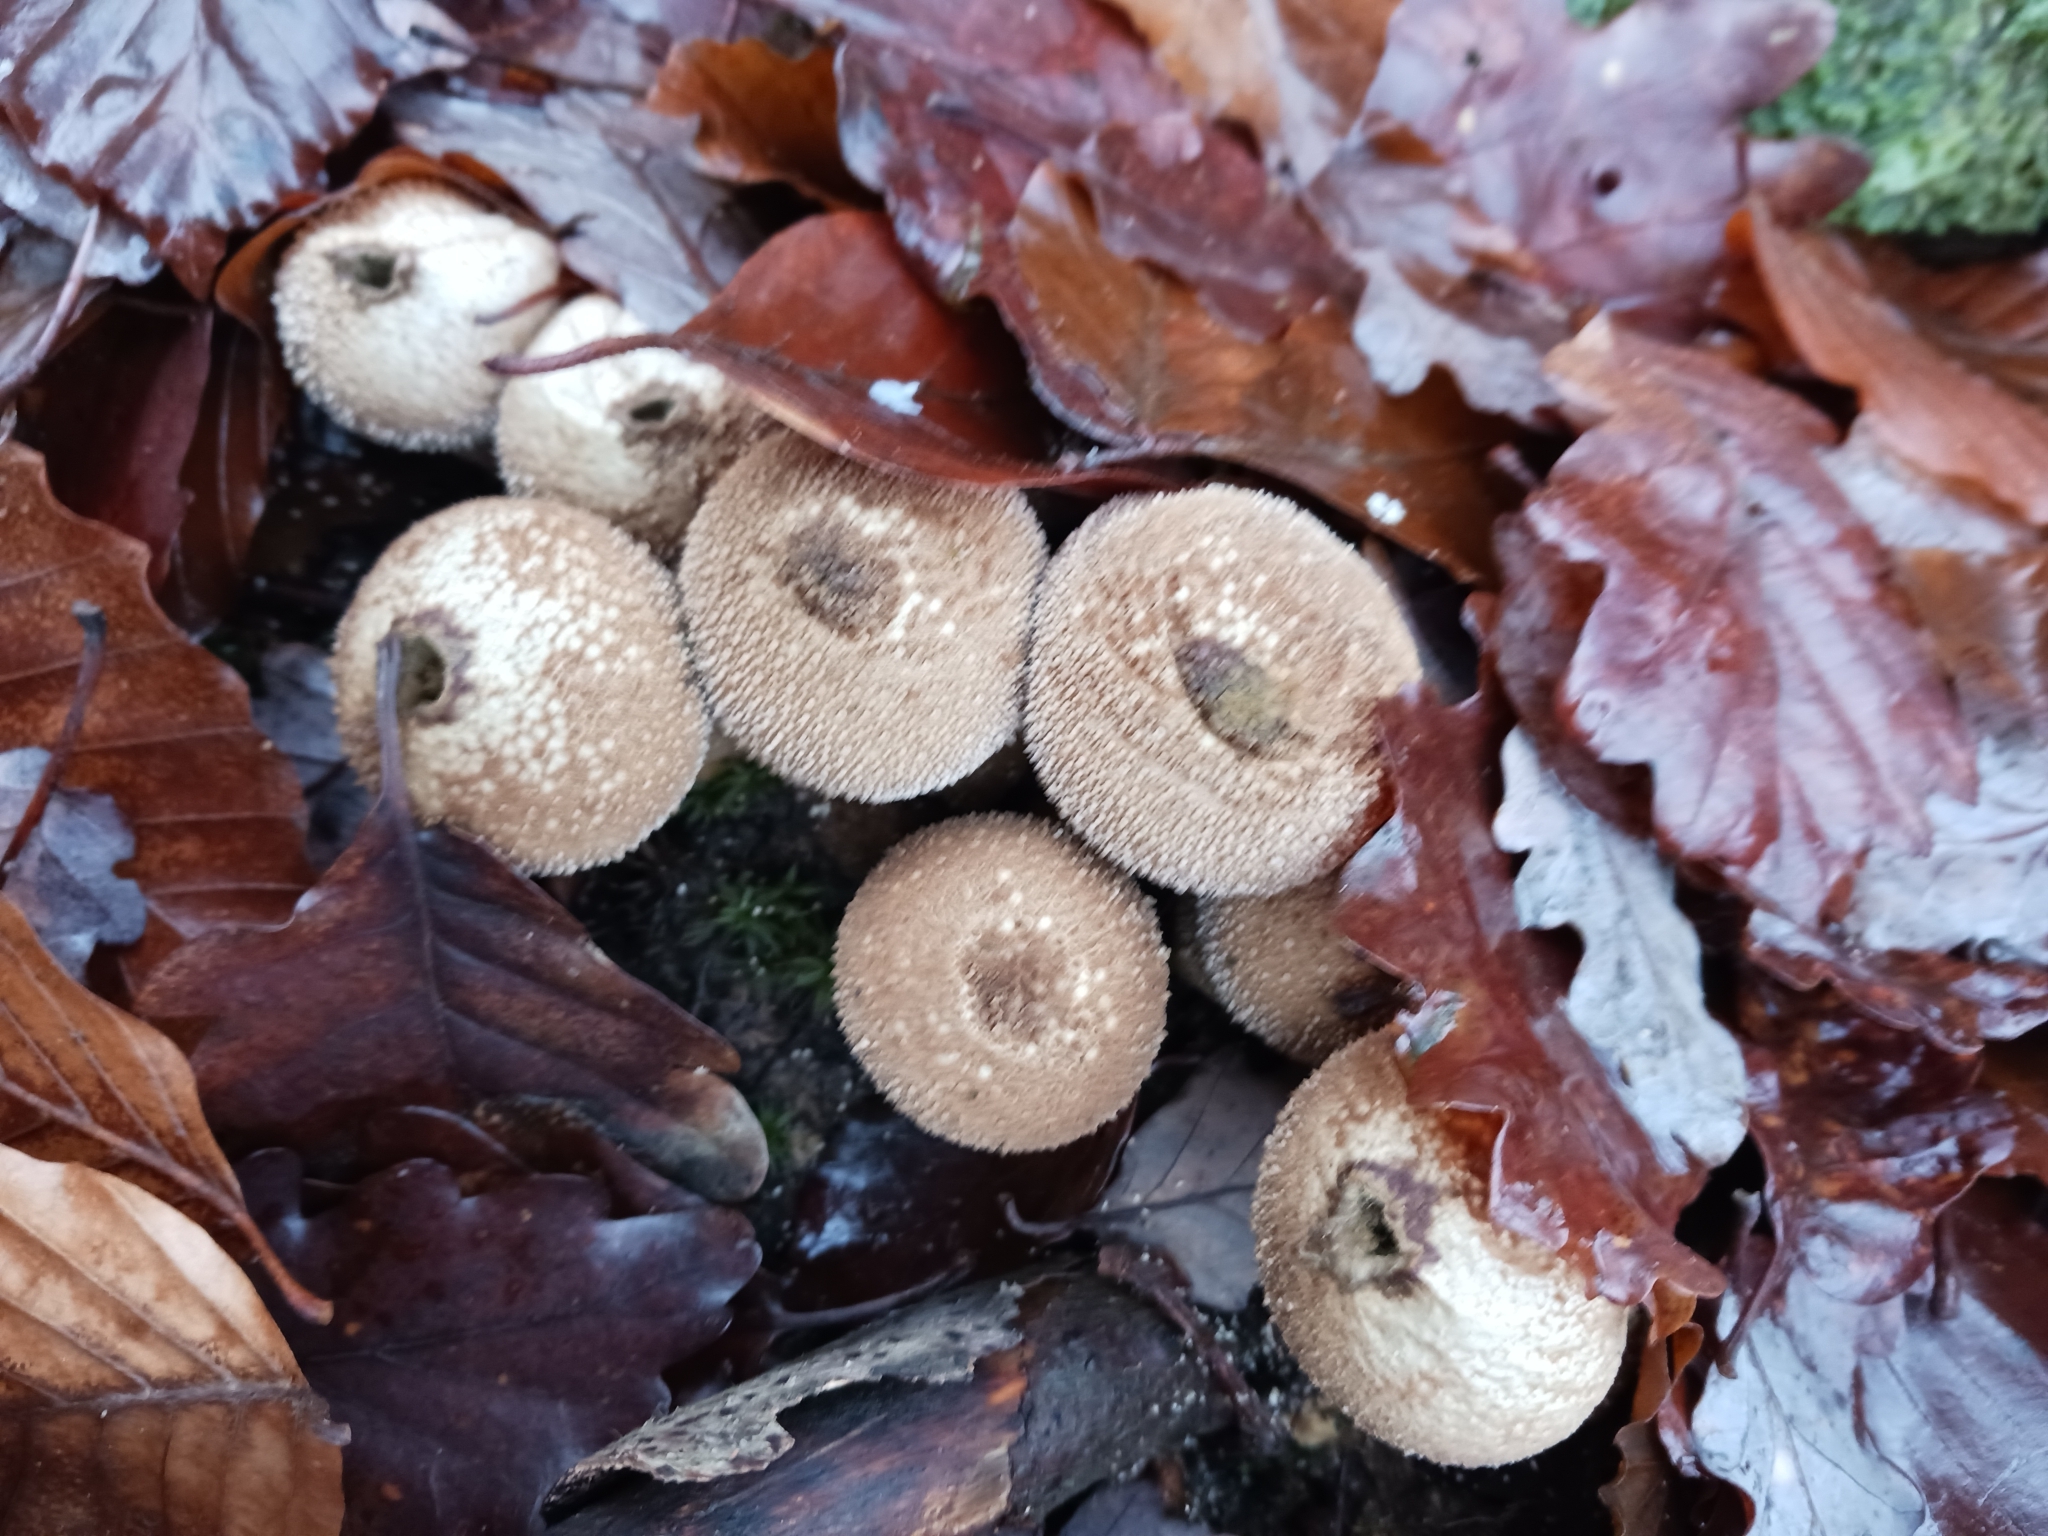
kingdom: Fungi
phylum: Basidiomycota
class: Agaricomycetes
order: Agaricales
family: Lycoperdaceae
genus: Lycoperdon
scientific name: Lycoperdon perlatum
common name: Common puffball
